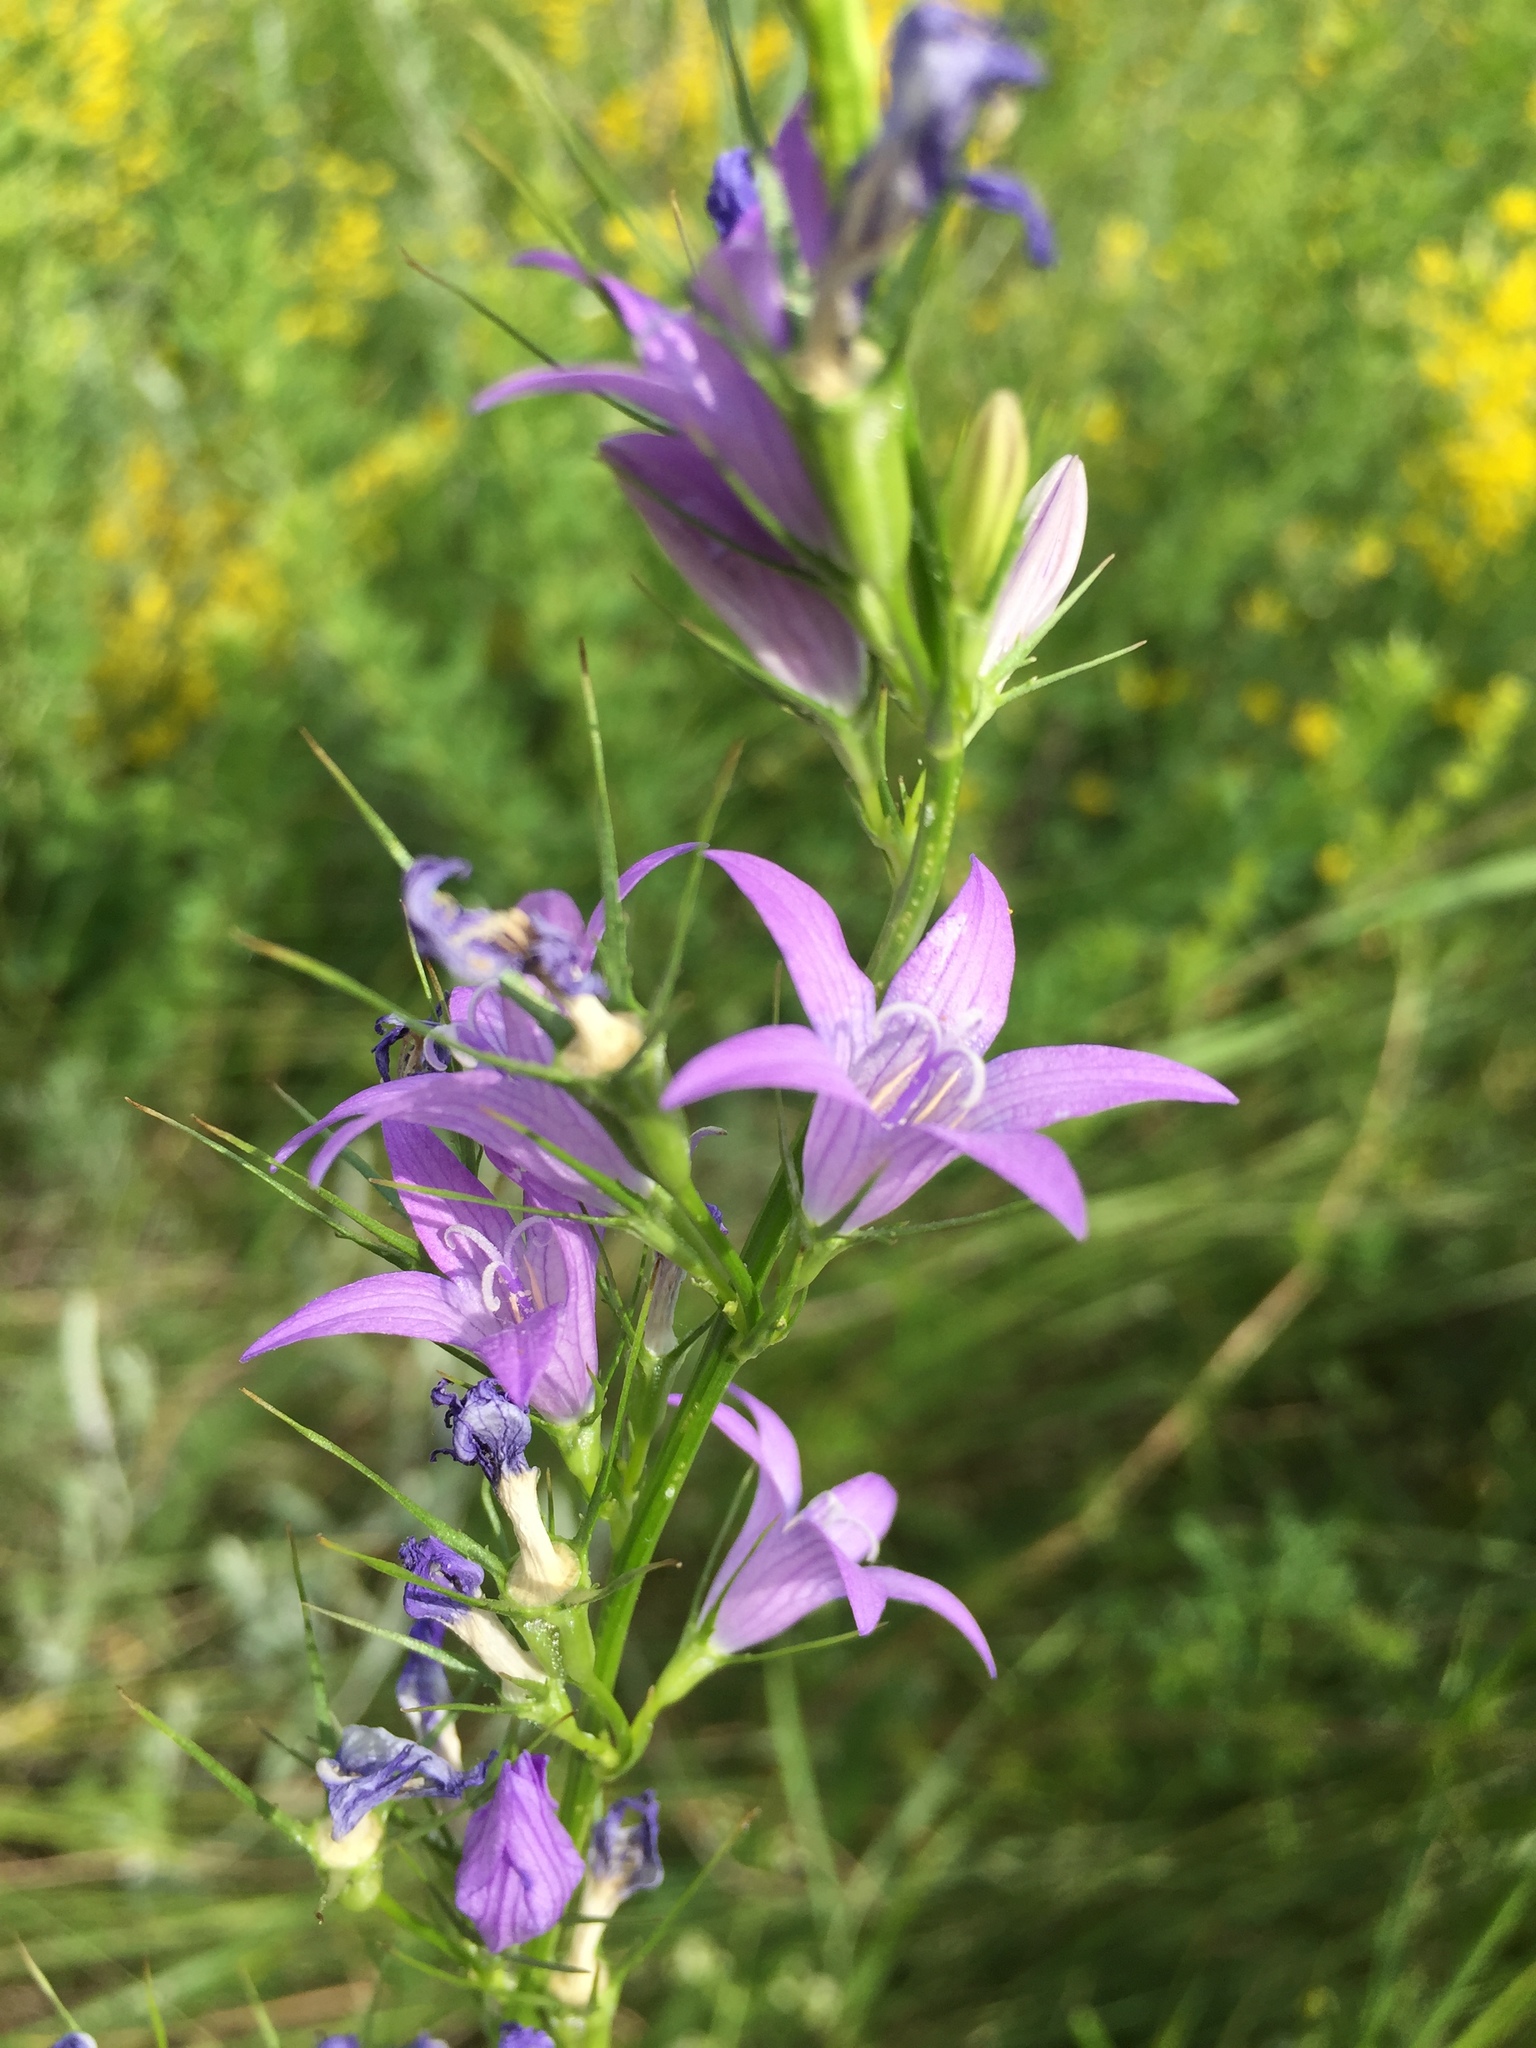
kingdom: Plantae
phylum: Tracheophyta
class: Magnoliopsida
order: Asterales
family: Campanulaceae
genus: Campanula
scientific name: Campanula rapunculus
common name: Rampion bellflower
